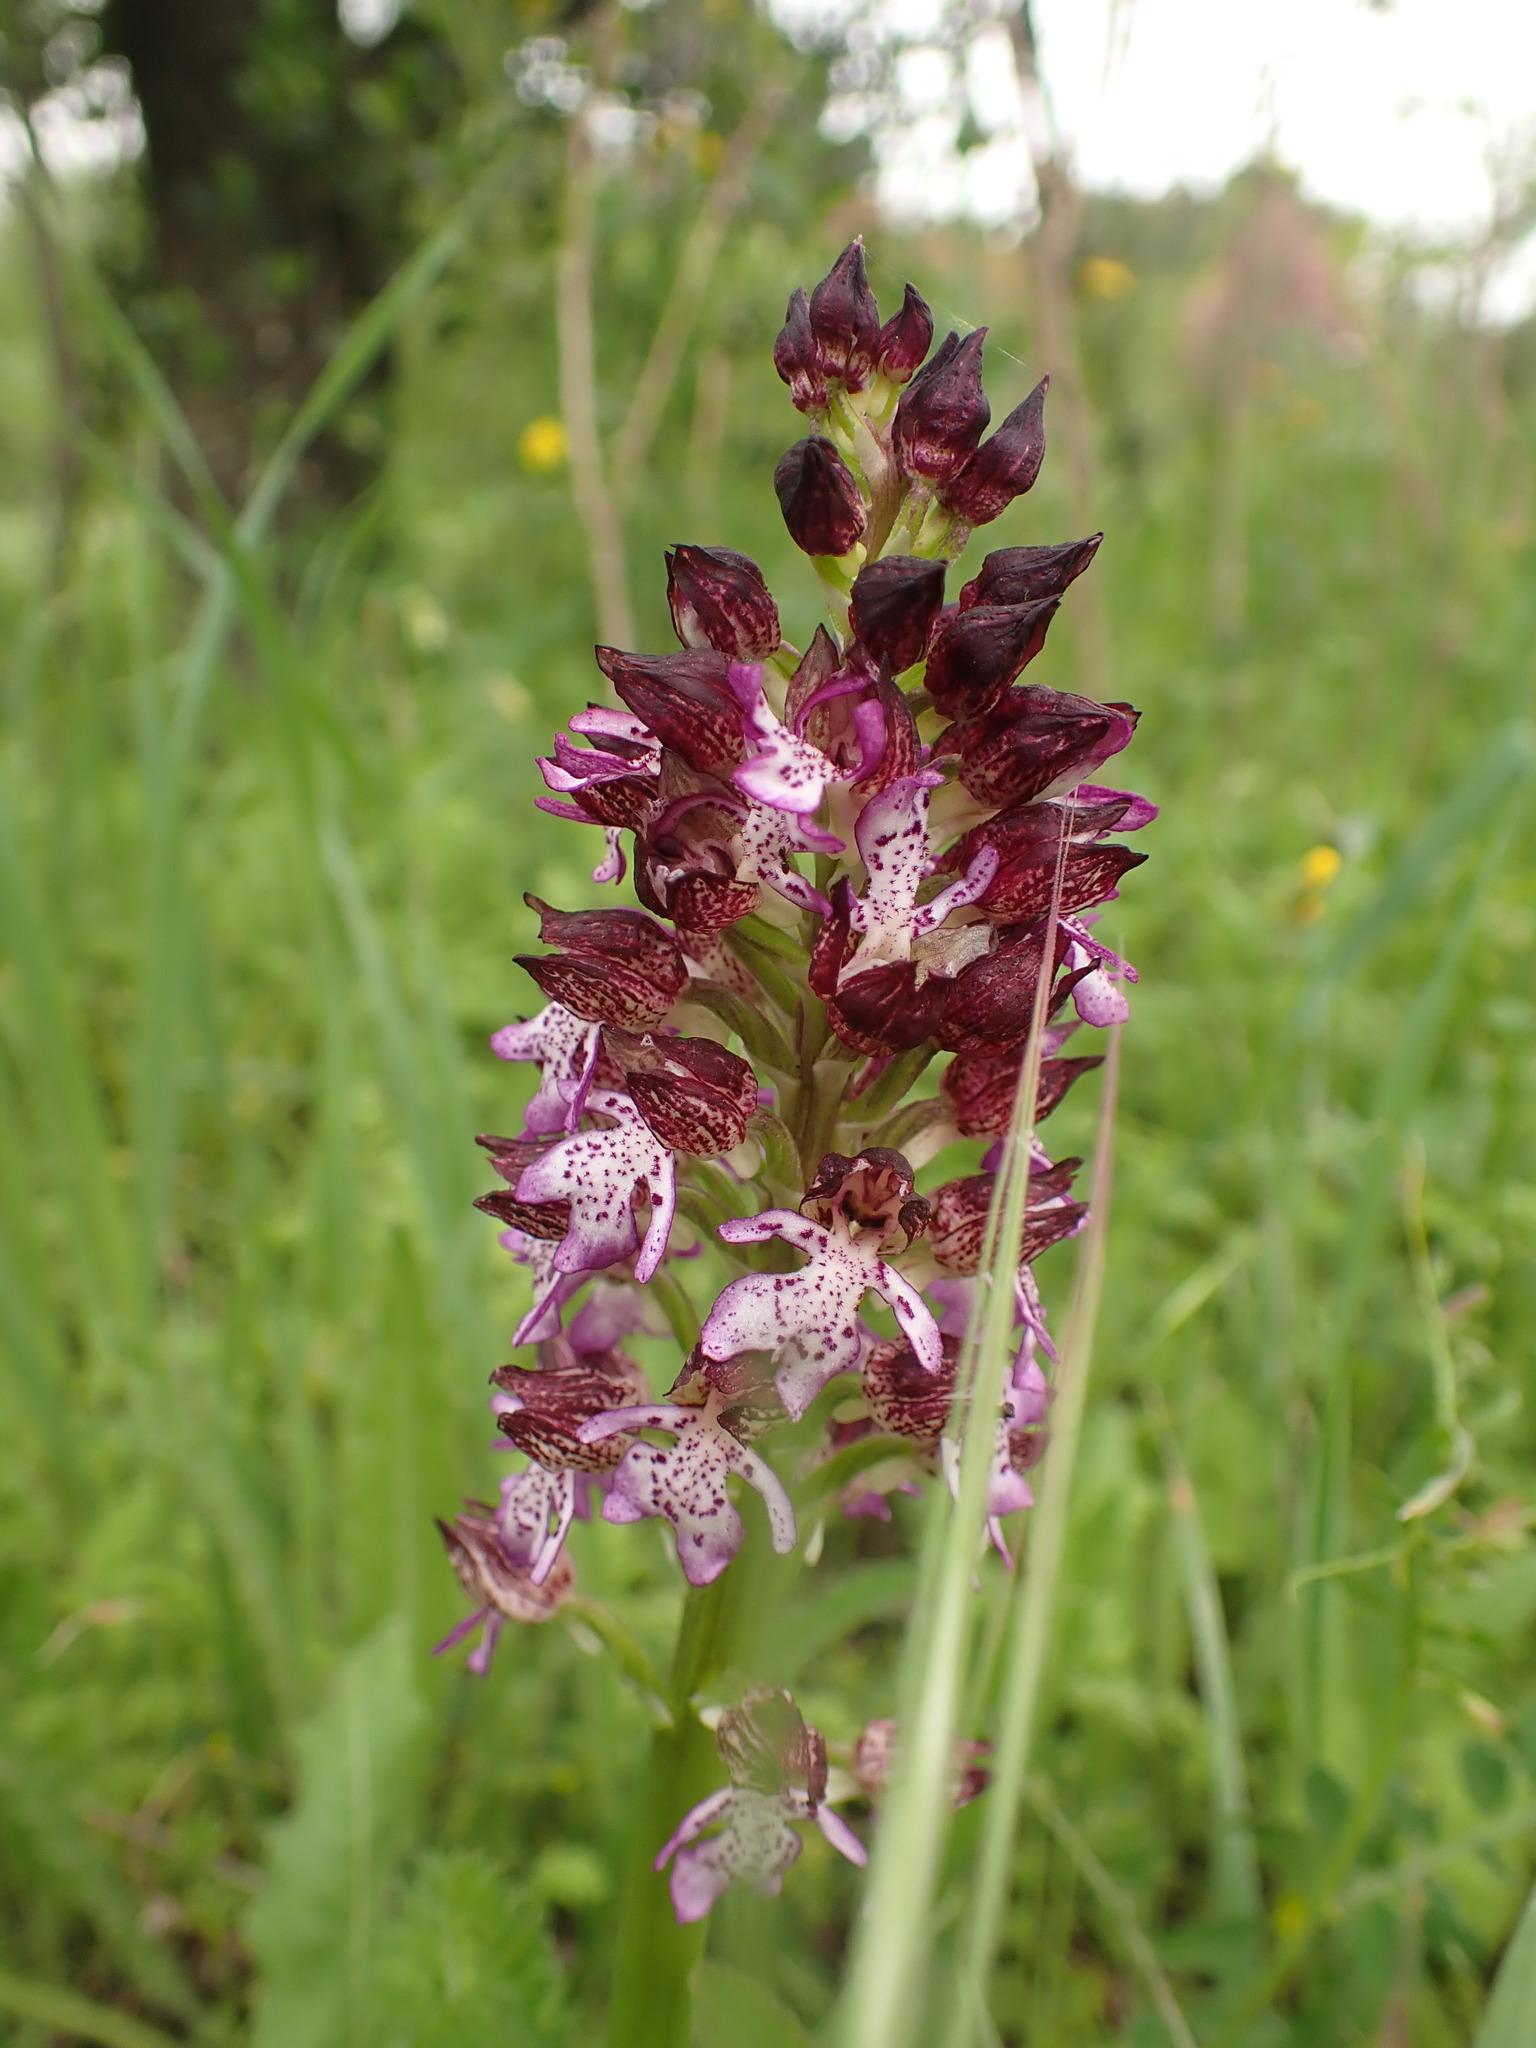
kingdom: Plantae
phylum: Tracheophyta
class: Liliopsida
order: Asparagales
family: Orchidaceae
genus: Orchis
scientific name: Orchis purpurea
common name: Lady orchid
